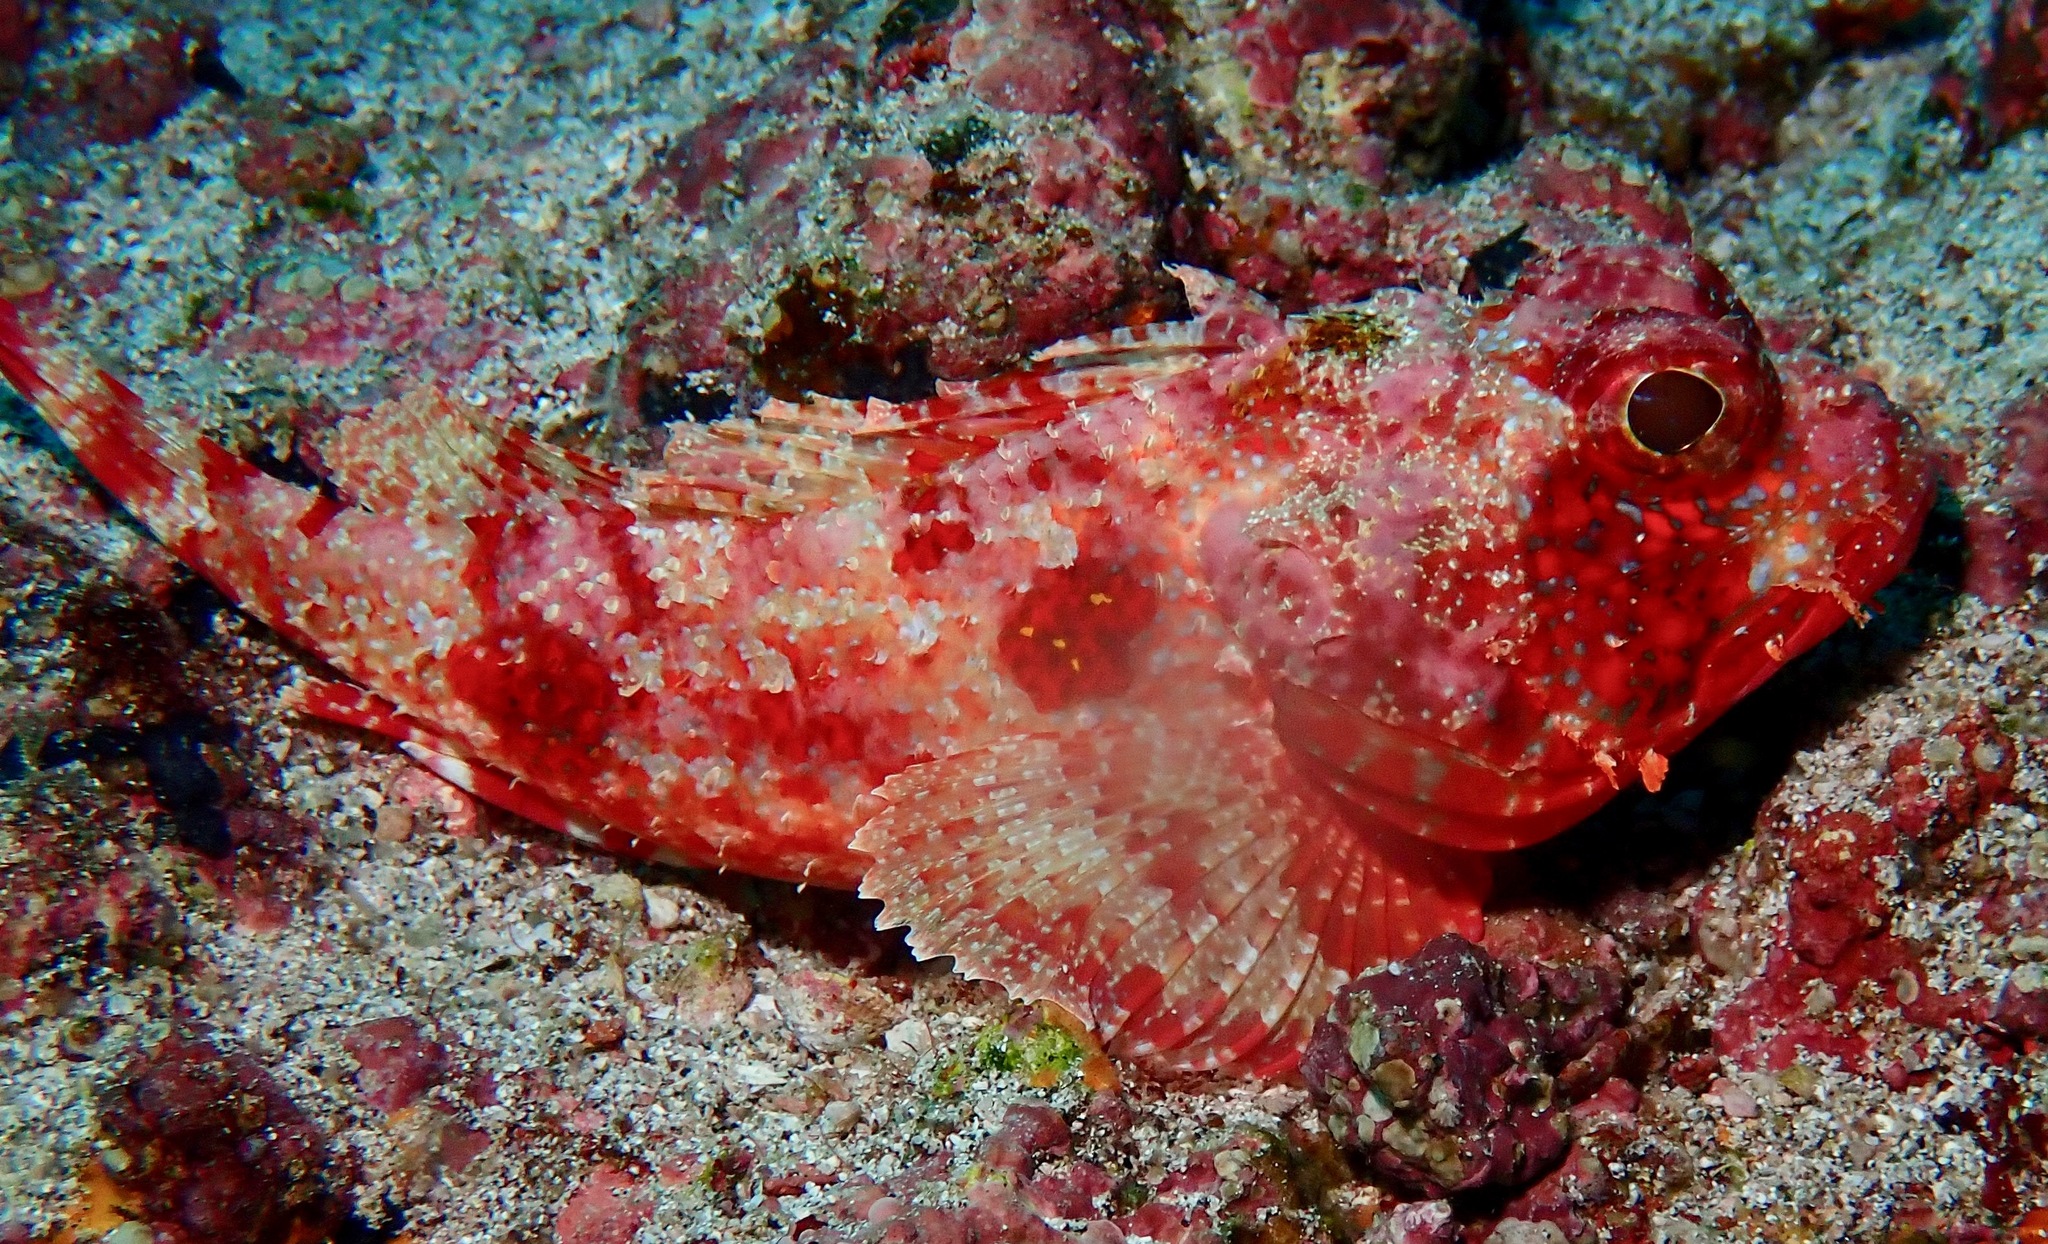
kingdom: Animalia
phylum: Chordata
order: Scorpaeniformes
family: Scorpaenidae
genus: Scorpaena
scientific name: Scorpaena histrio
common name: Player scorpionfish
